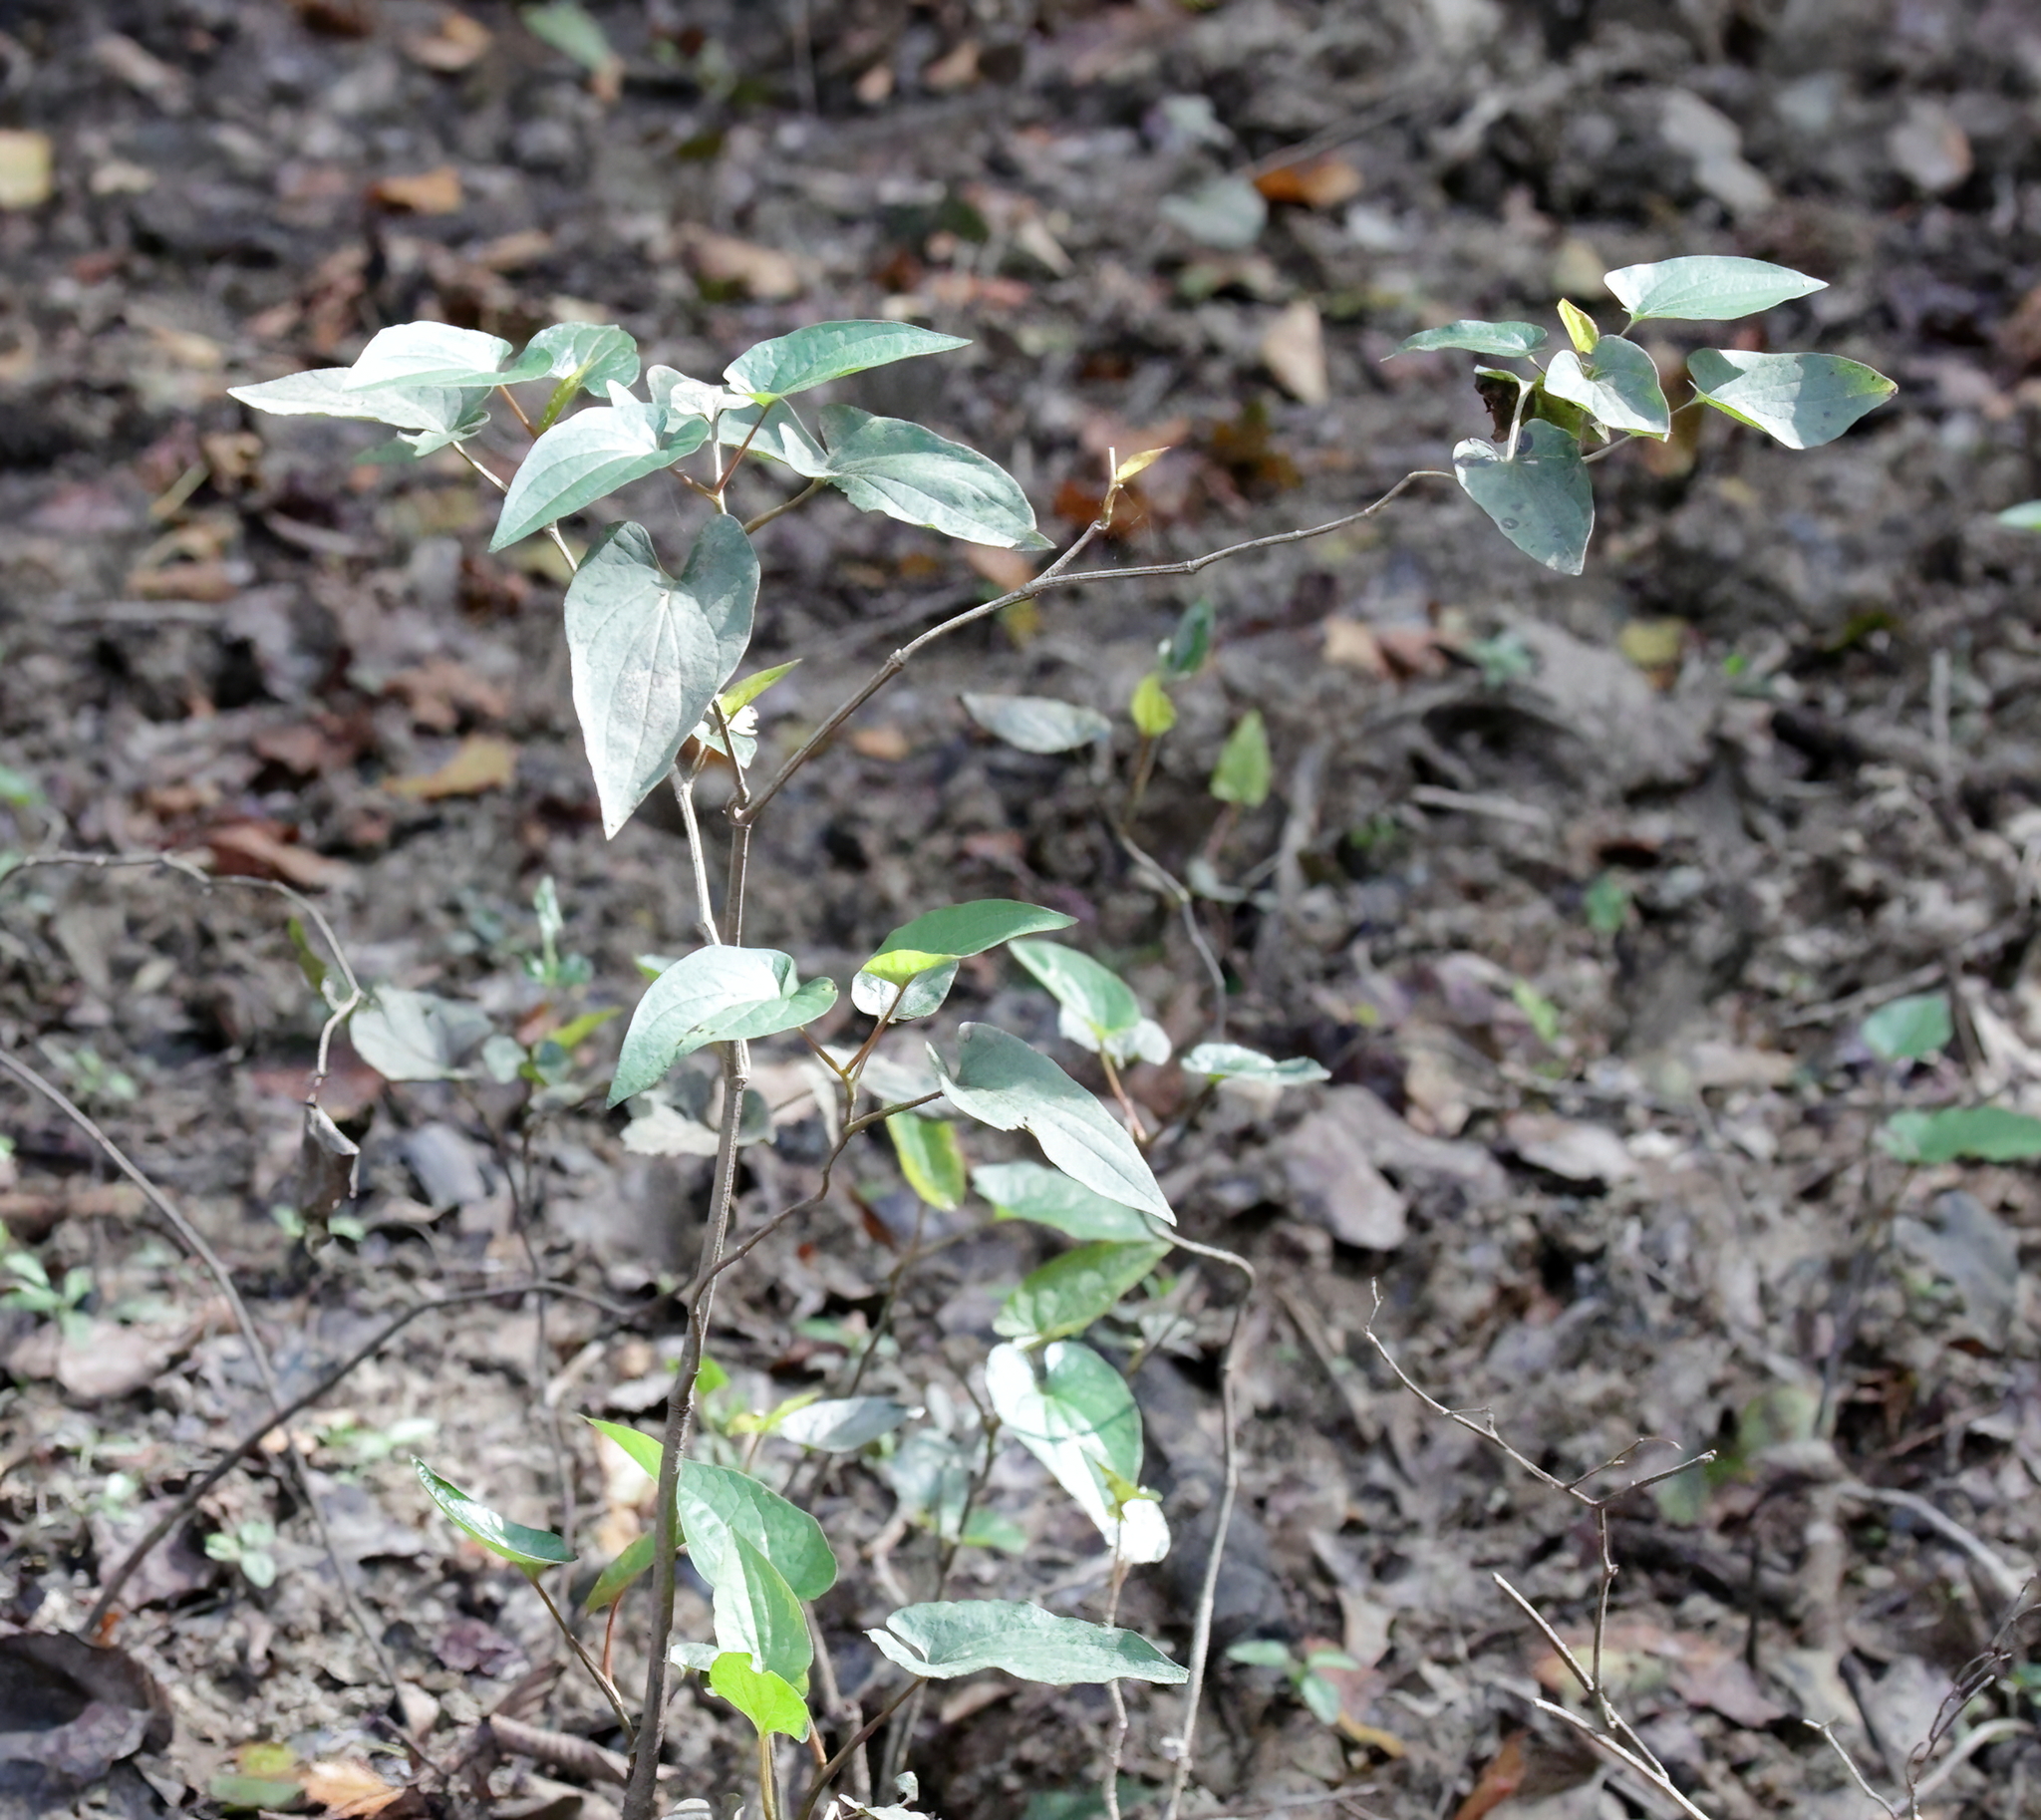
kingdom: Plantae
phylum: Tracheophyta
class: Magnoliopsida
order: Piperales
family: Saururaceae
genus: Saururus
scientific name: Saururus cernuus
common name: Lizard's-tail
